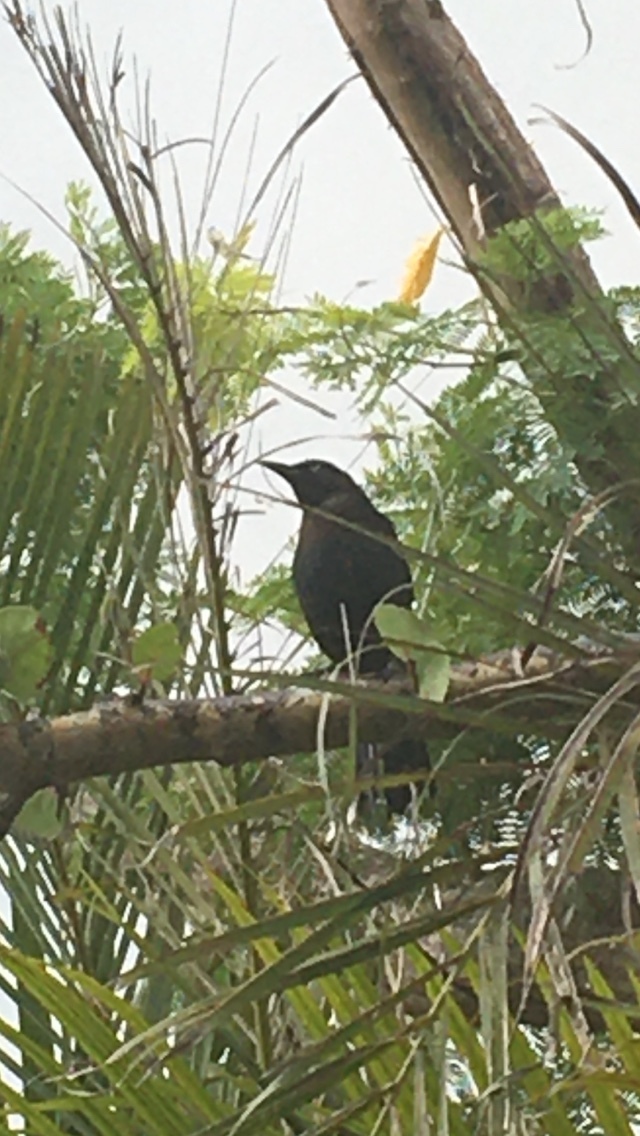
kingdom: Animalia
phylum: Chordata
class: Aves
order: Passeriformes
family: Icteridae
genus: Quiscalus
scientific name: Quiscalus quiscula
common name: Common grackle
